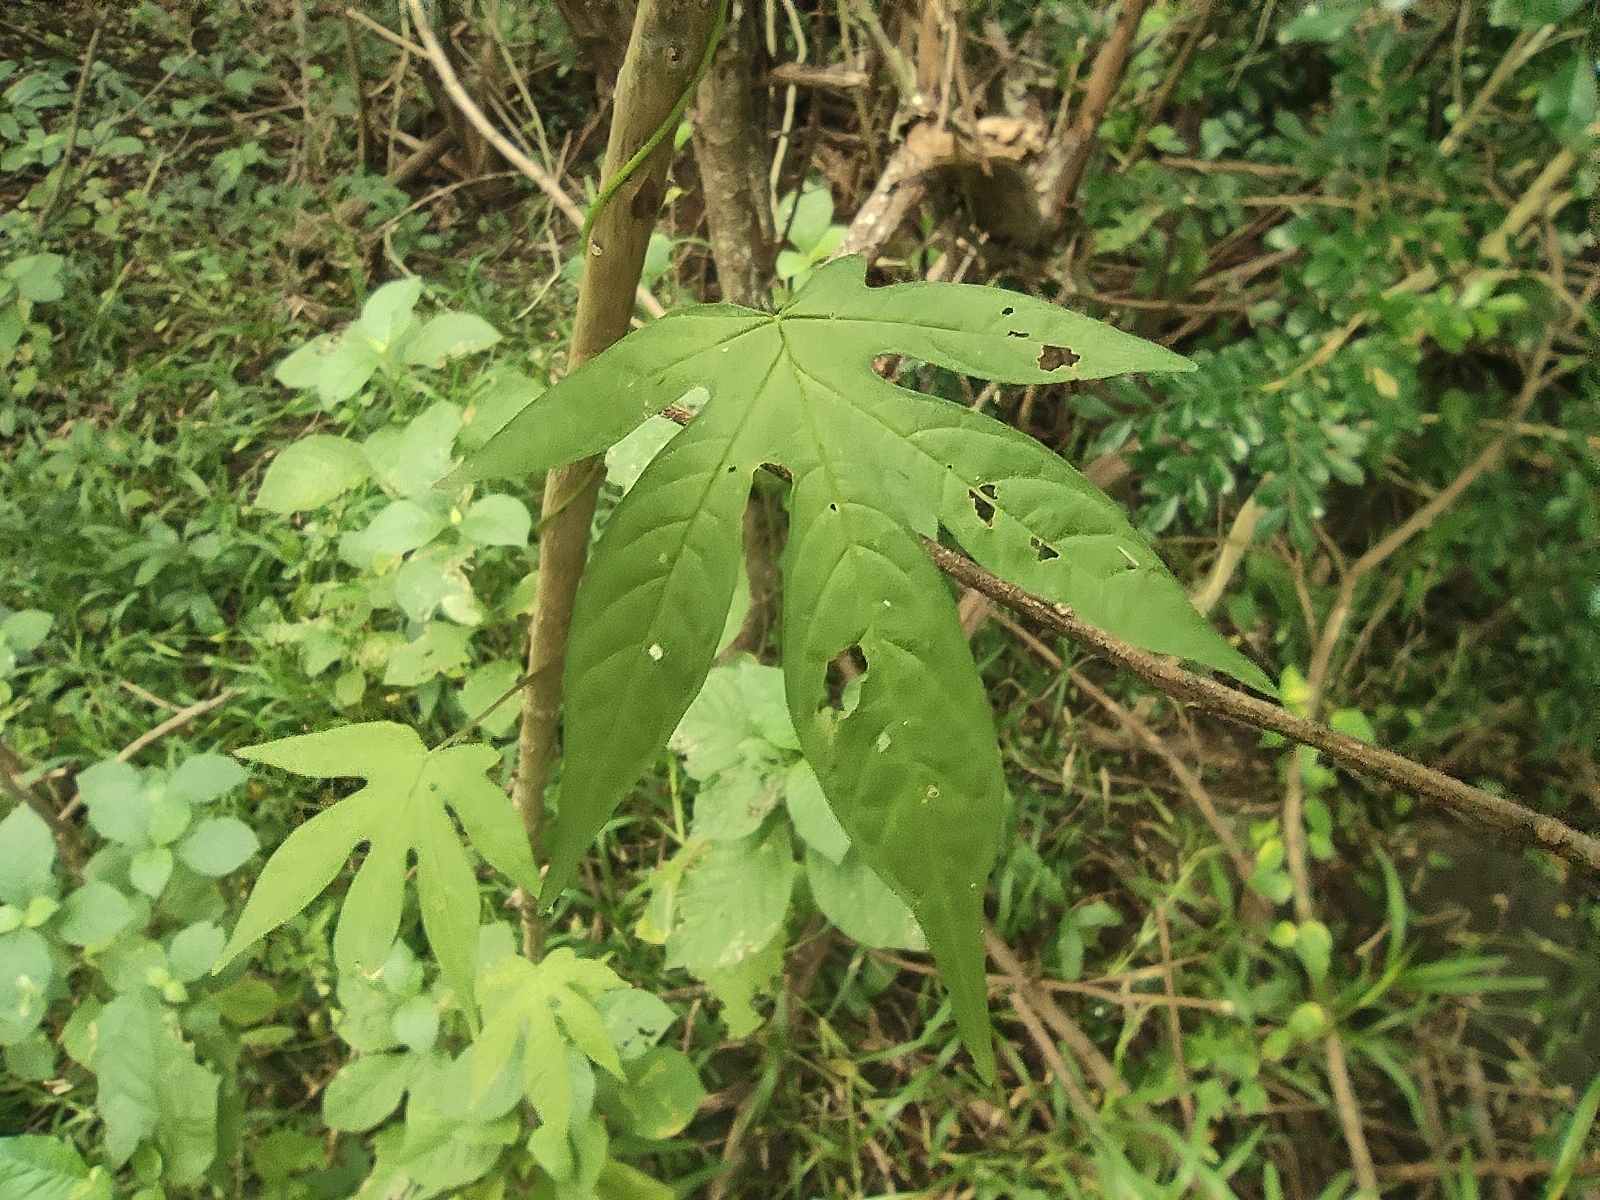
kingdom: Plantae
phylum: Tracheophyta
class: Magnoliopsida
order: Solanales
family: Convolvulaceae
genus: Distimake
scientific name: Distimake tuberosus
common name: Spanish arborvine
